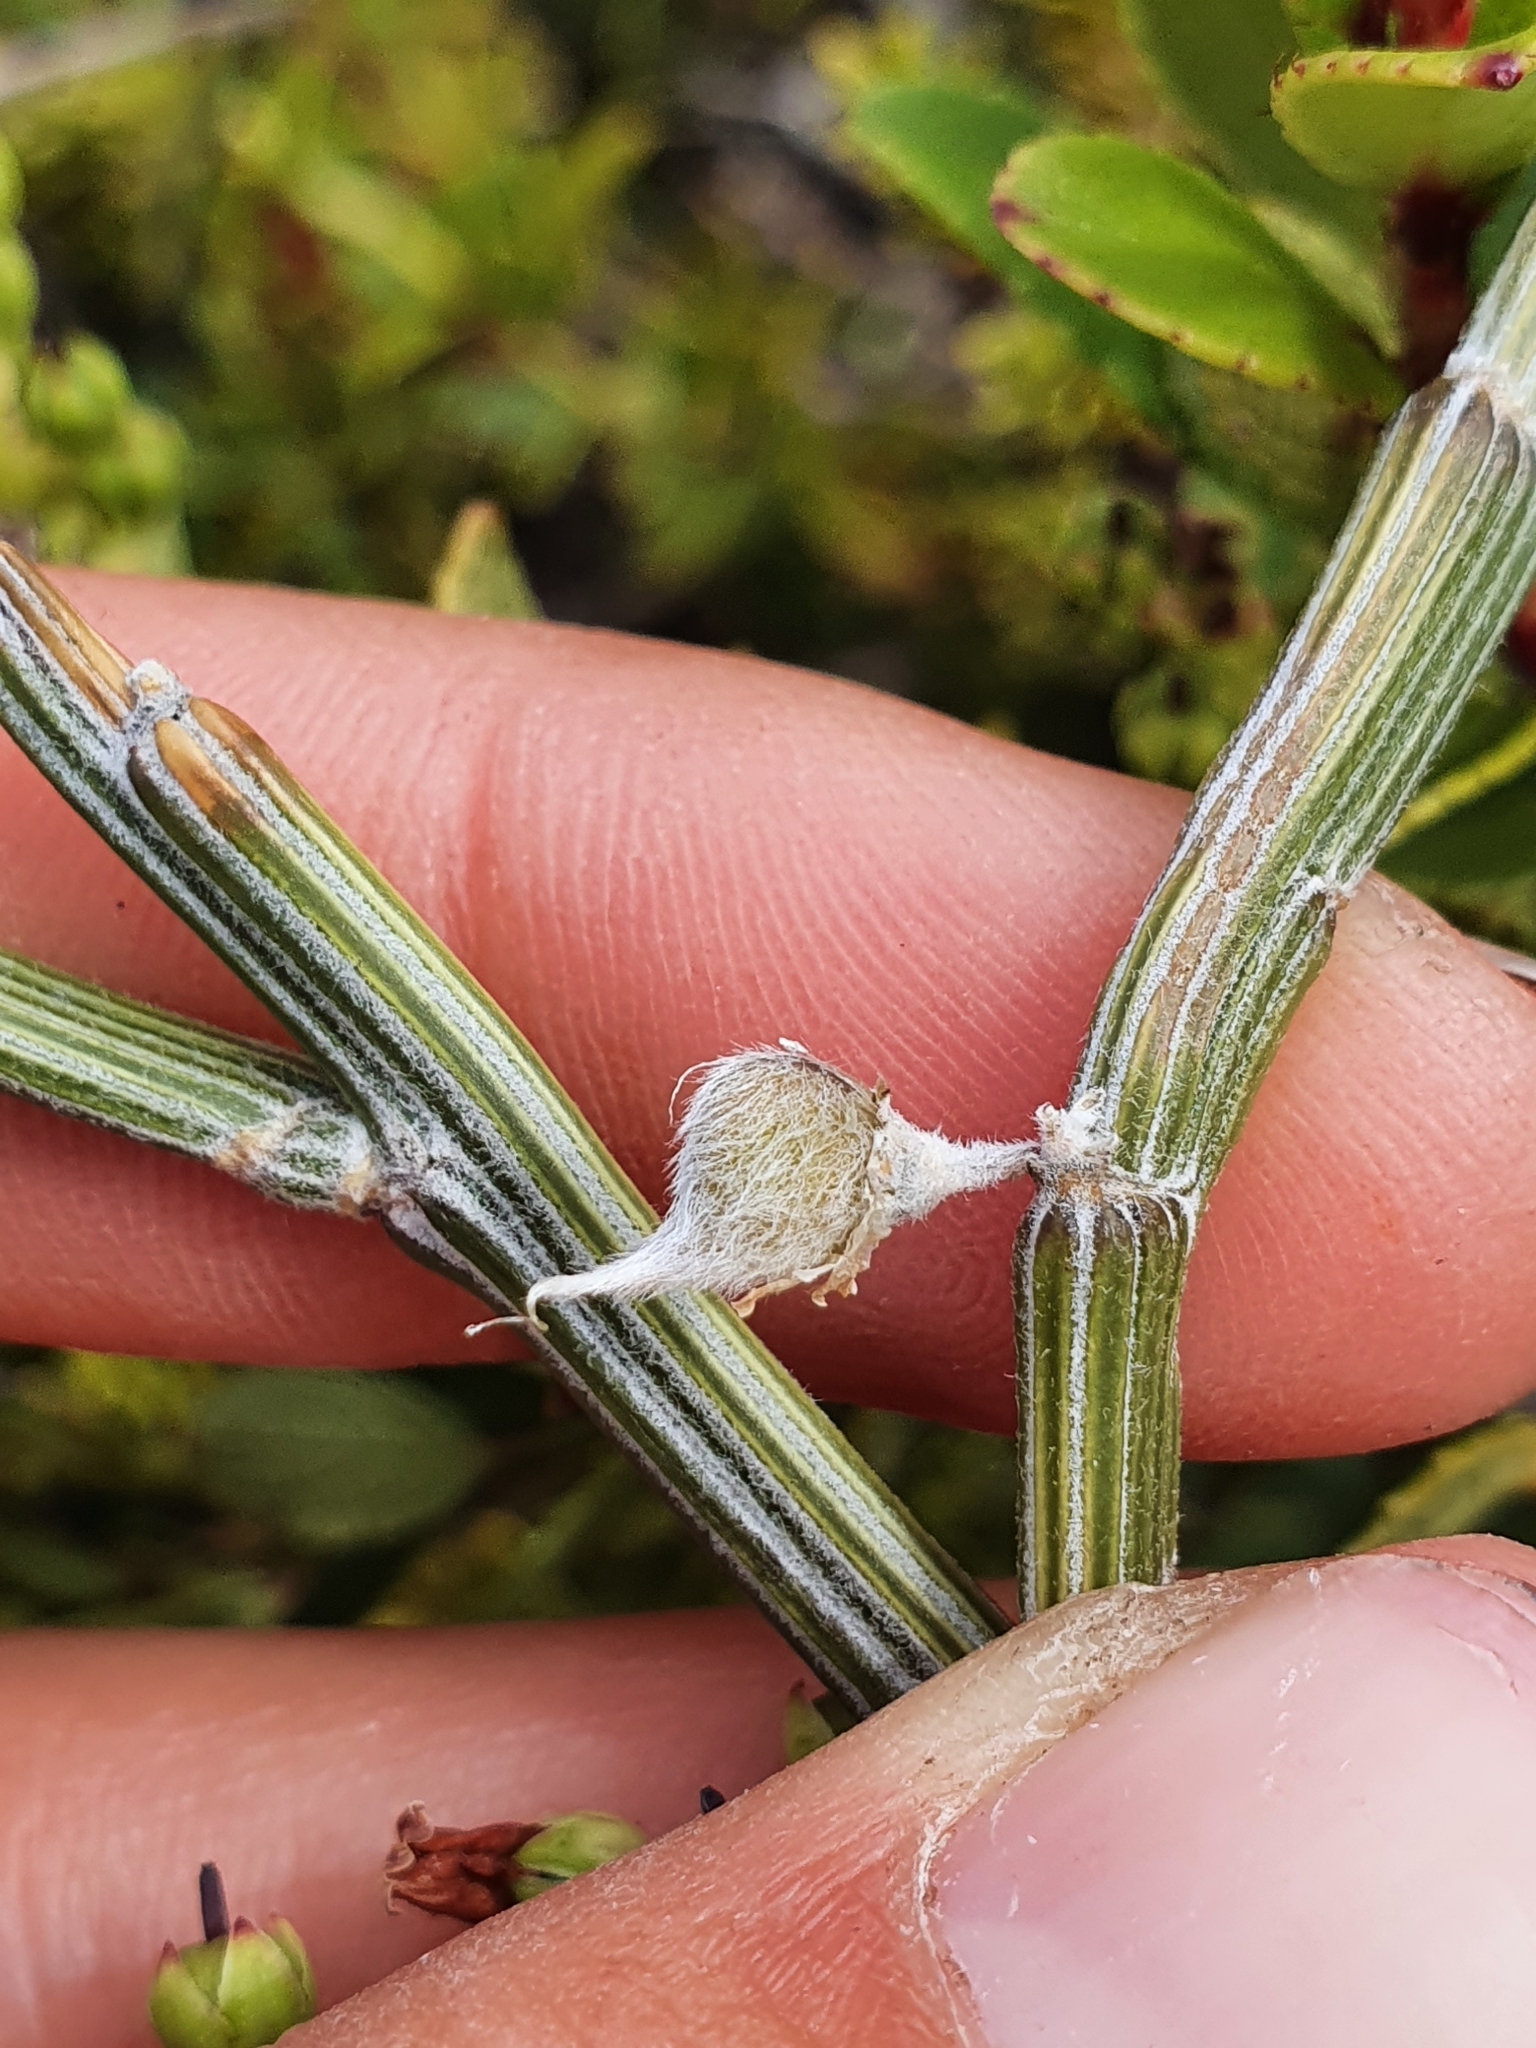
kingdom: Plantae
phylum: Tracheophyta
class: Magnoliopsida
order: Fabales
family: Fabaceae
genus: Carmichaelia
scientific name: Carmichaelia crassicaulis
